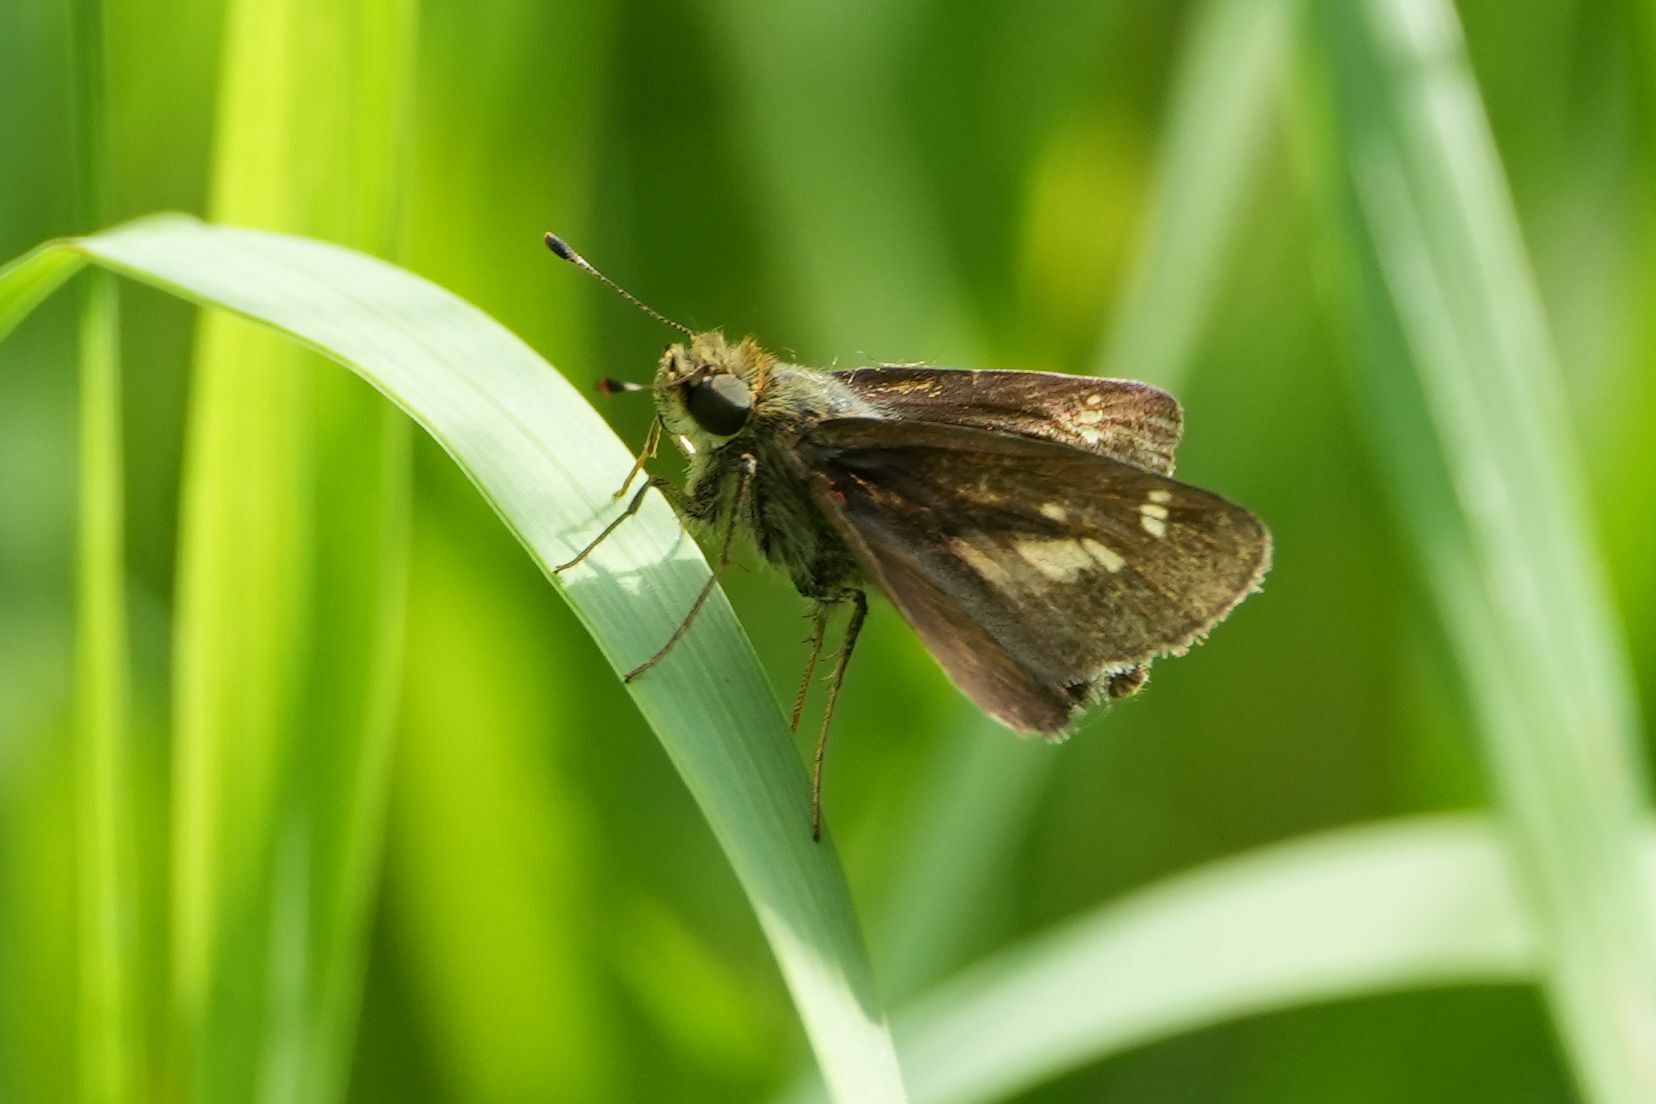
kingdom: Animalia
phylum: Arthropoda
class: Insecta
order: Lepidoptera
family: Hesperiidae
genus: Vernia
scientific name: Vernia verna
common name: Little glassywing
